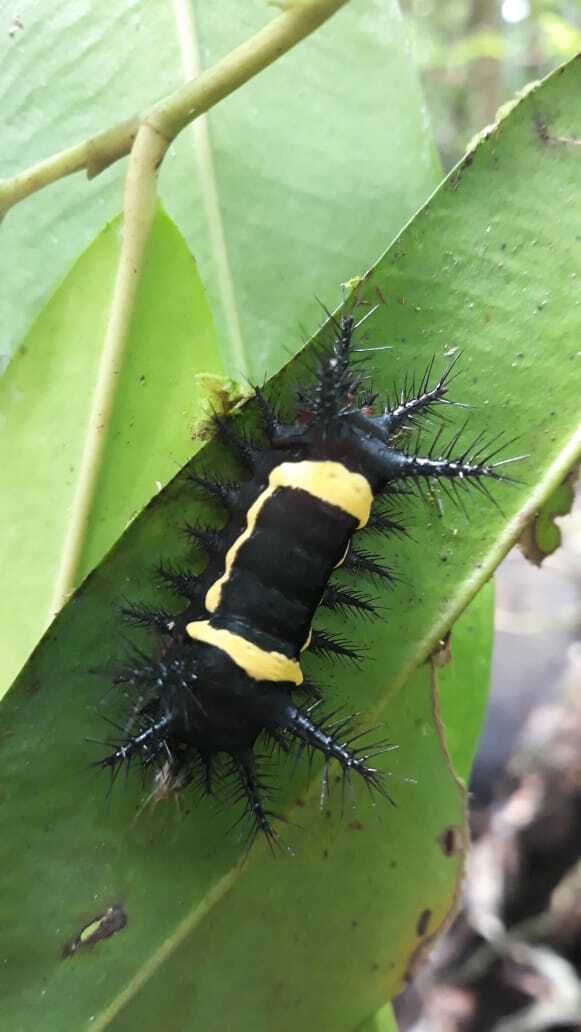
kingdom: Animalia
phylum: Arthropoda
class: Insecta
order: Lepidoptera
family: Limacodidae
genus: Sibine
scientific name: Sibine nesea
